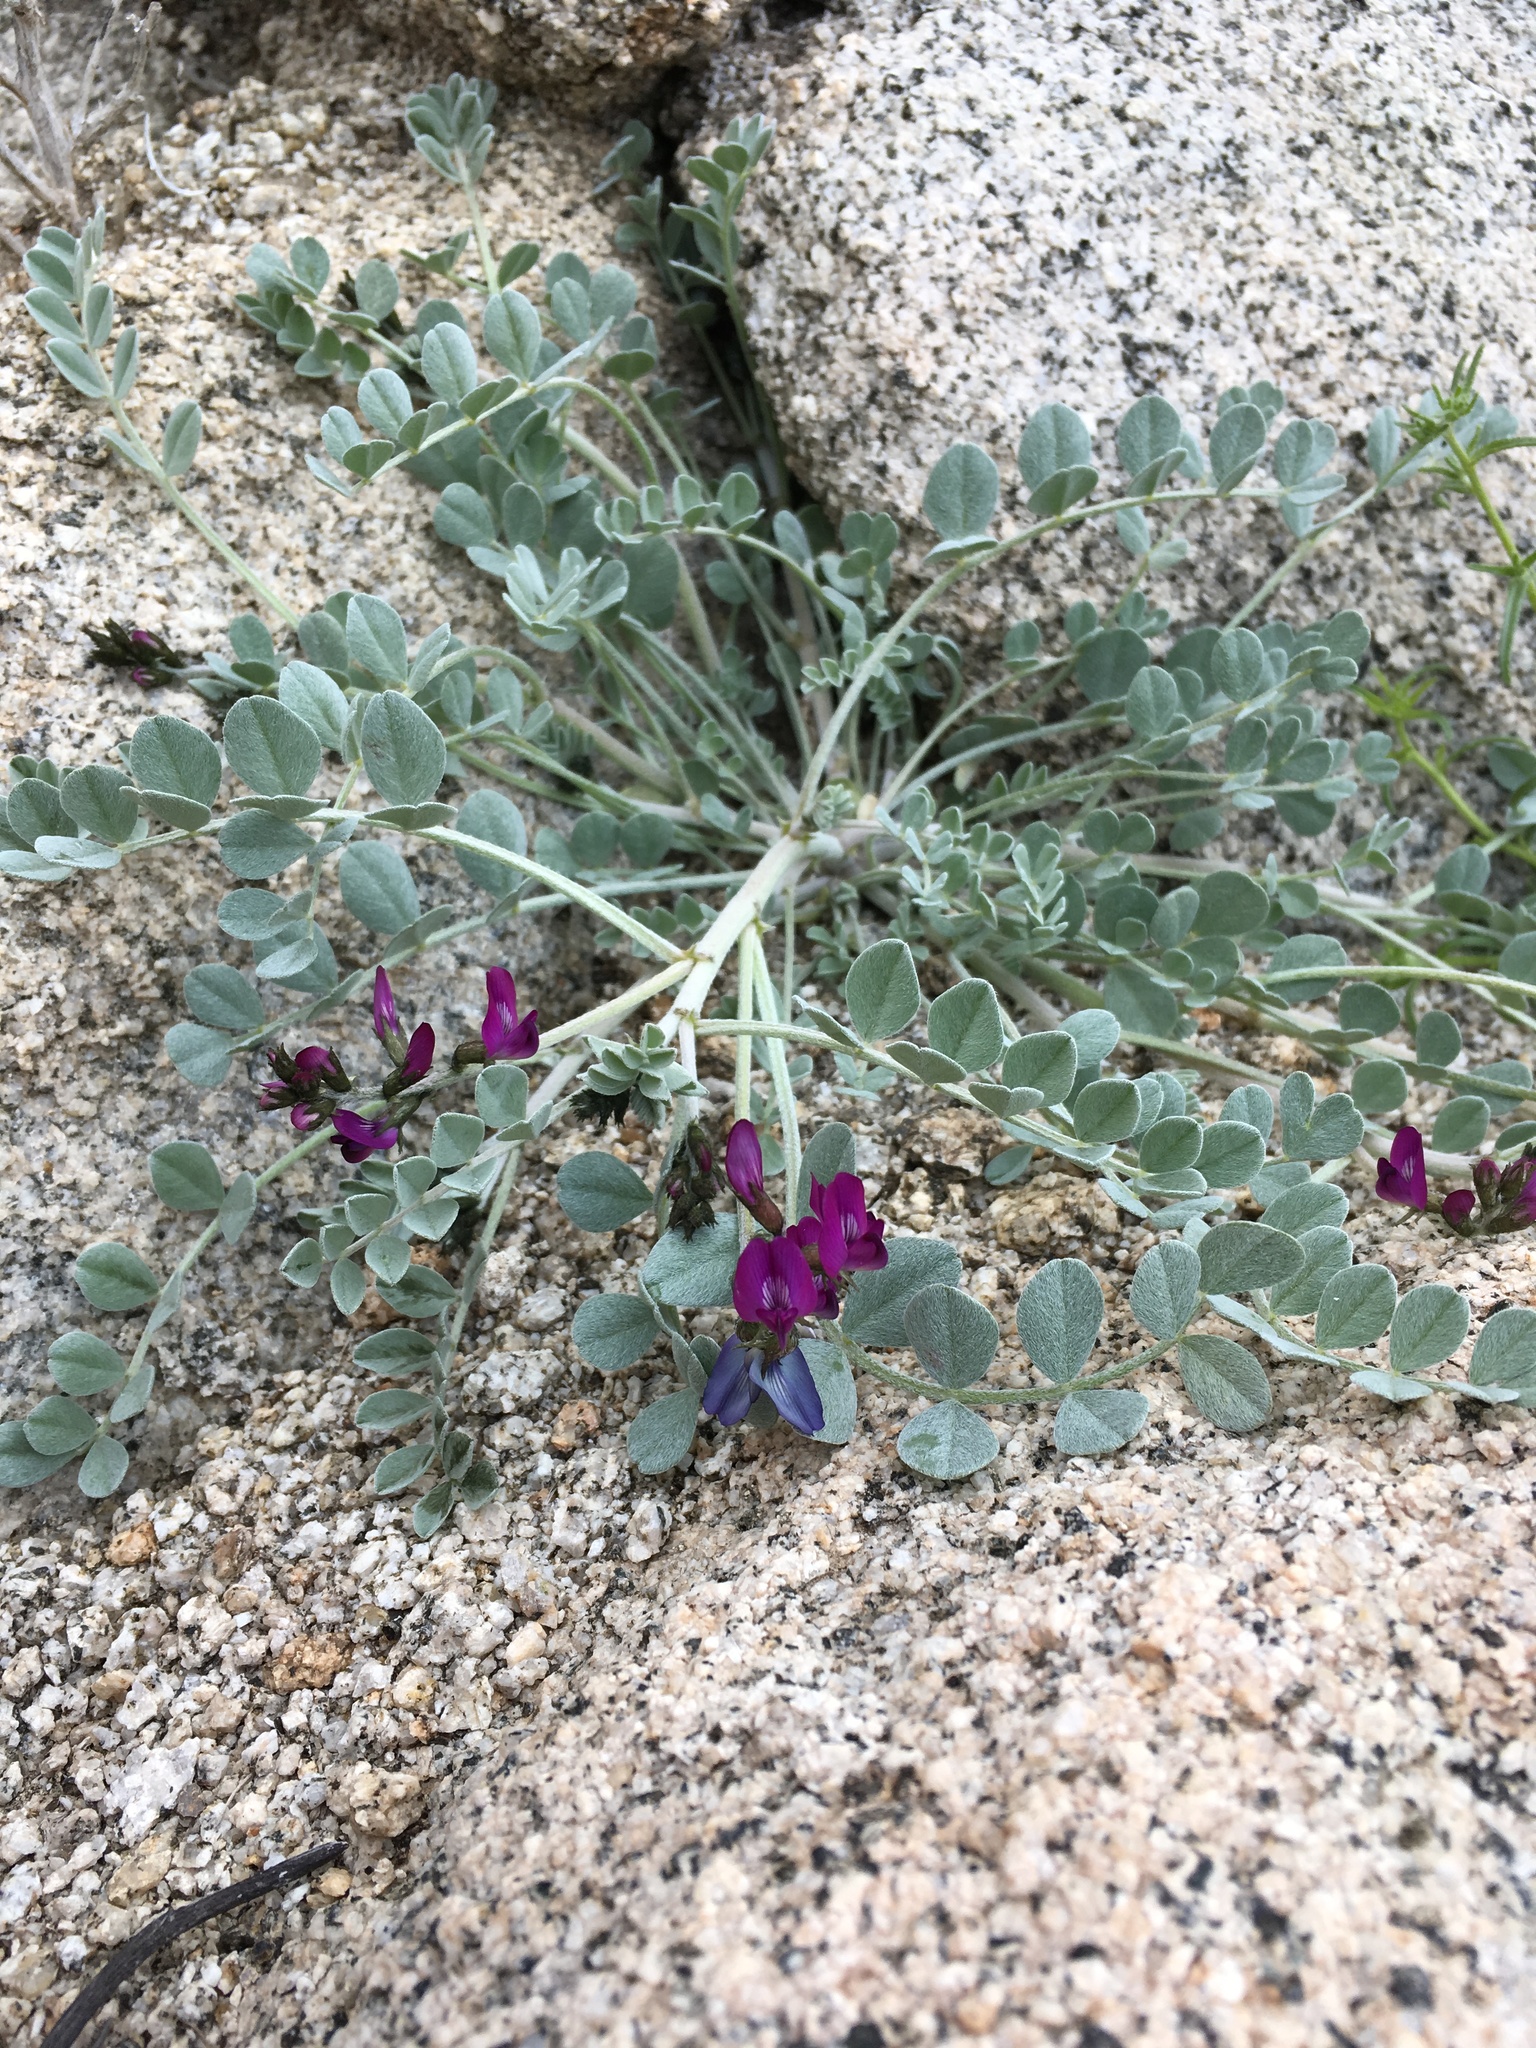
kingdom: Plantae
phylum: Tracheophyta
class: Magnoliopsida
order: Fabales
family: Fabaceae
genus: Astragalus
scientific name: Astragalus mohavensis
